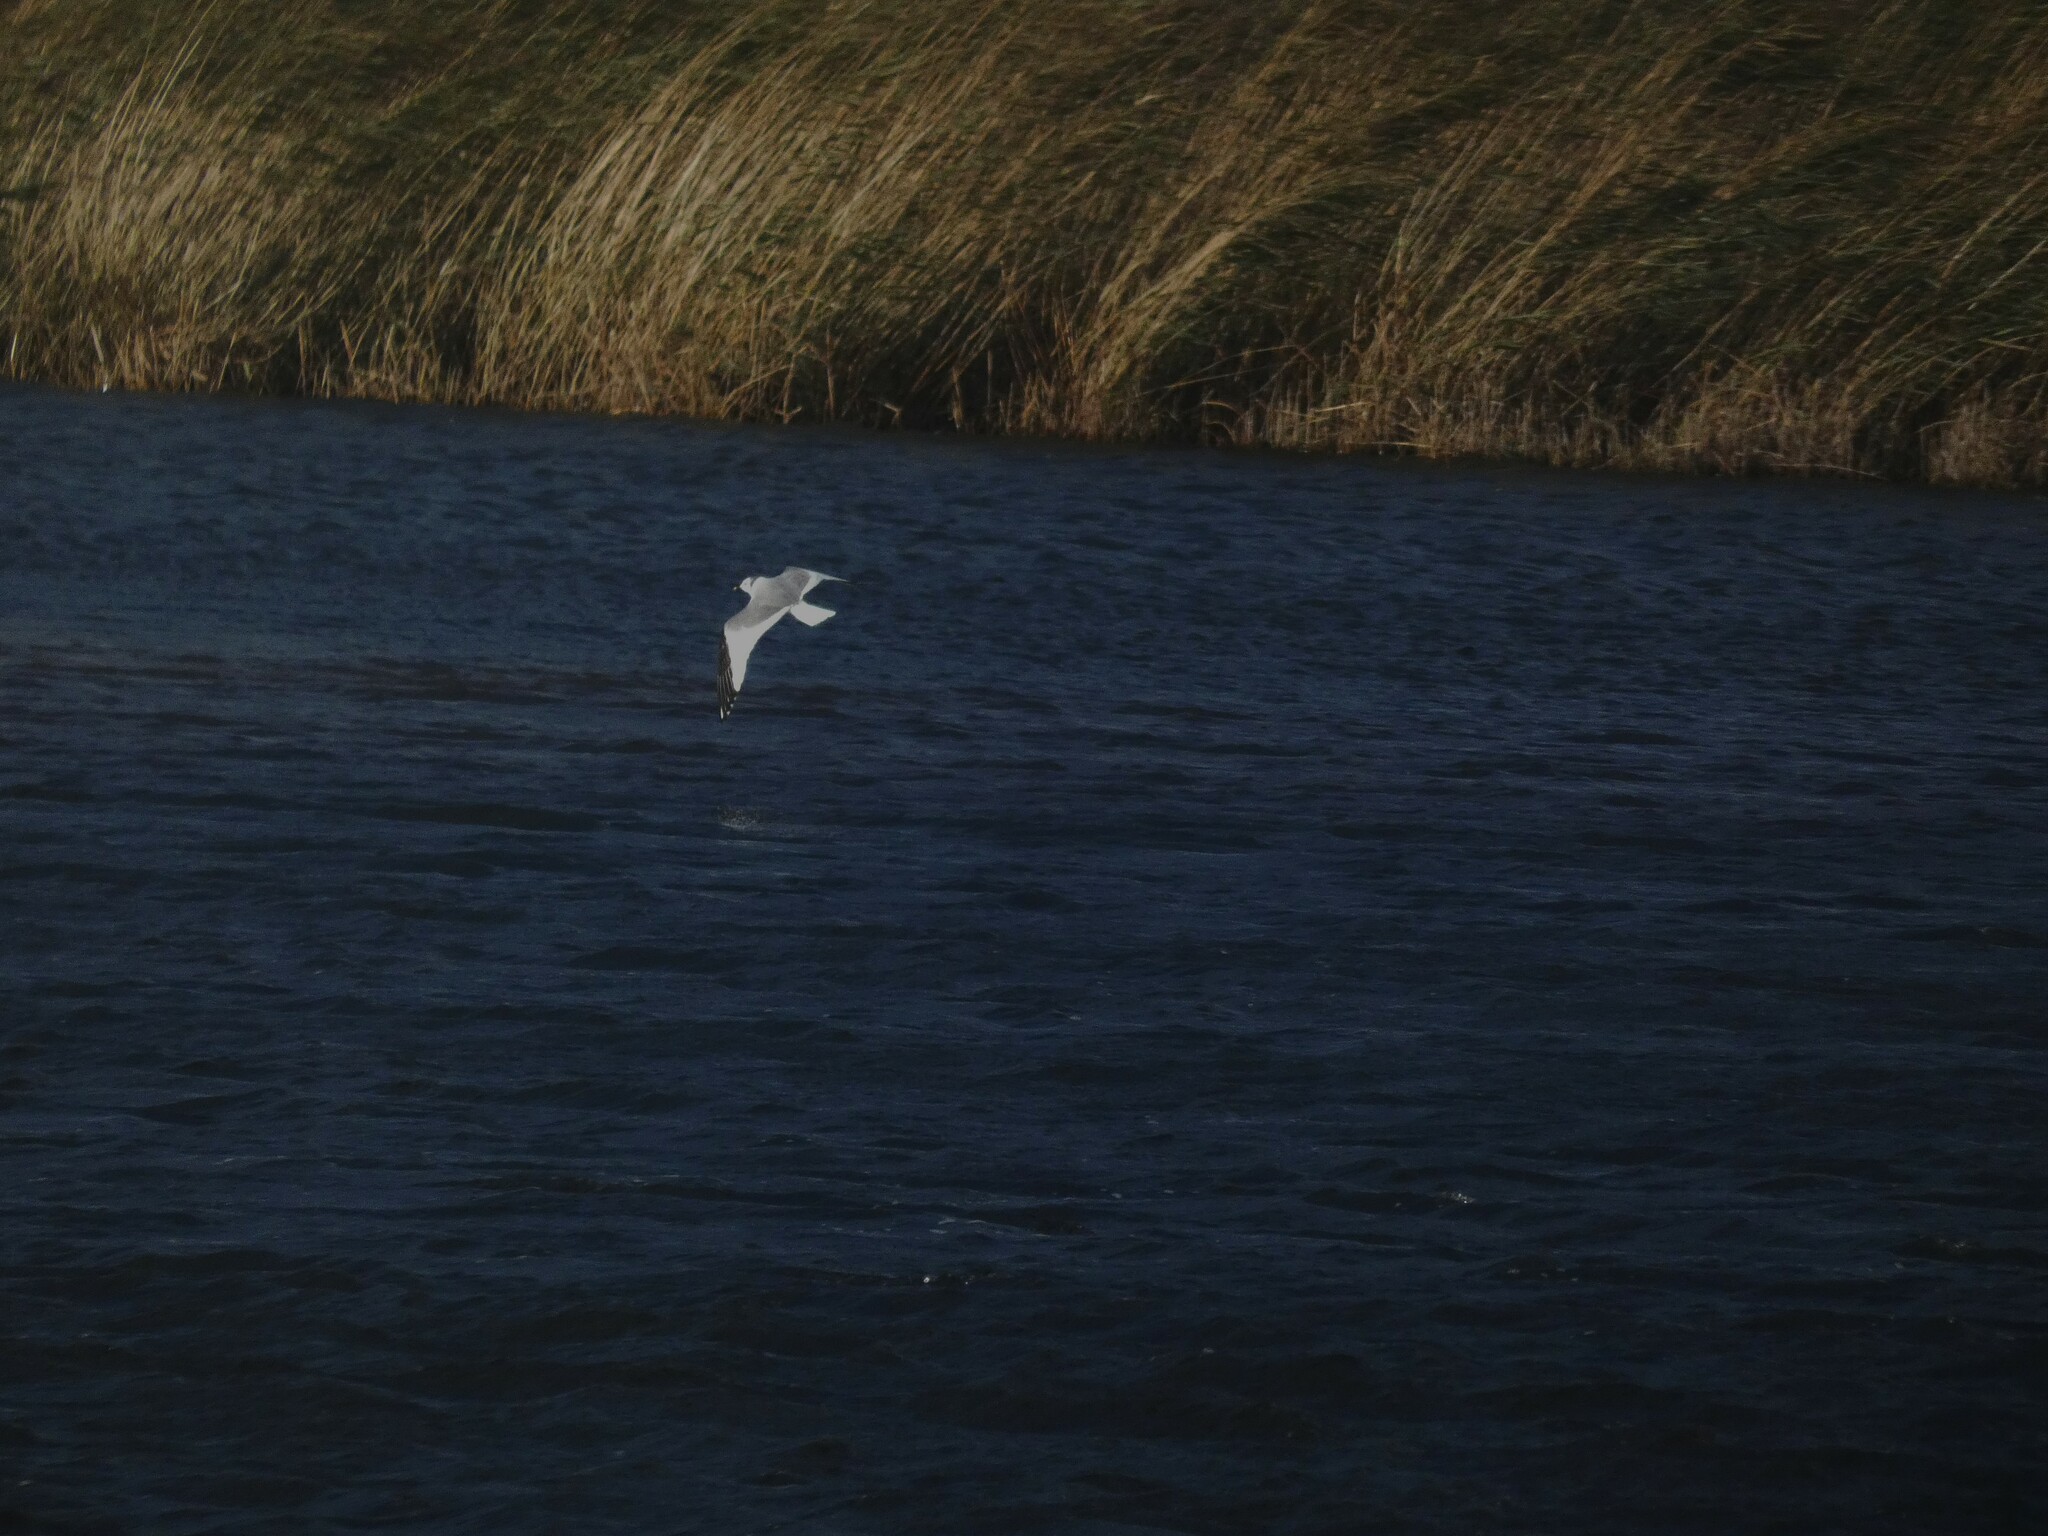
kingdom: Animalia
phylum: Chordata
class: Aves
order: Charadriiformes
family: Laridae
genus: Xema
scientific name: Xema sabini
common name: Sabine's gull
